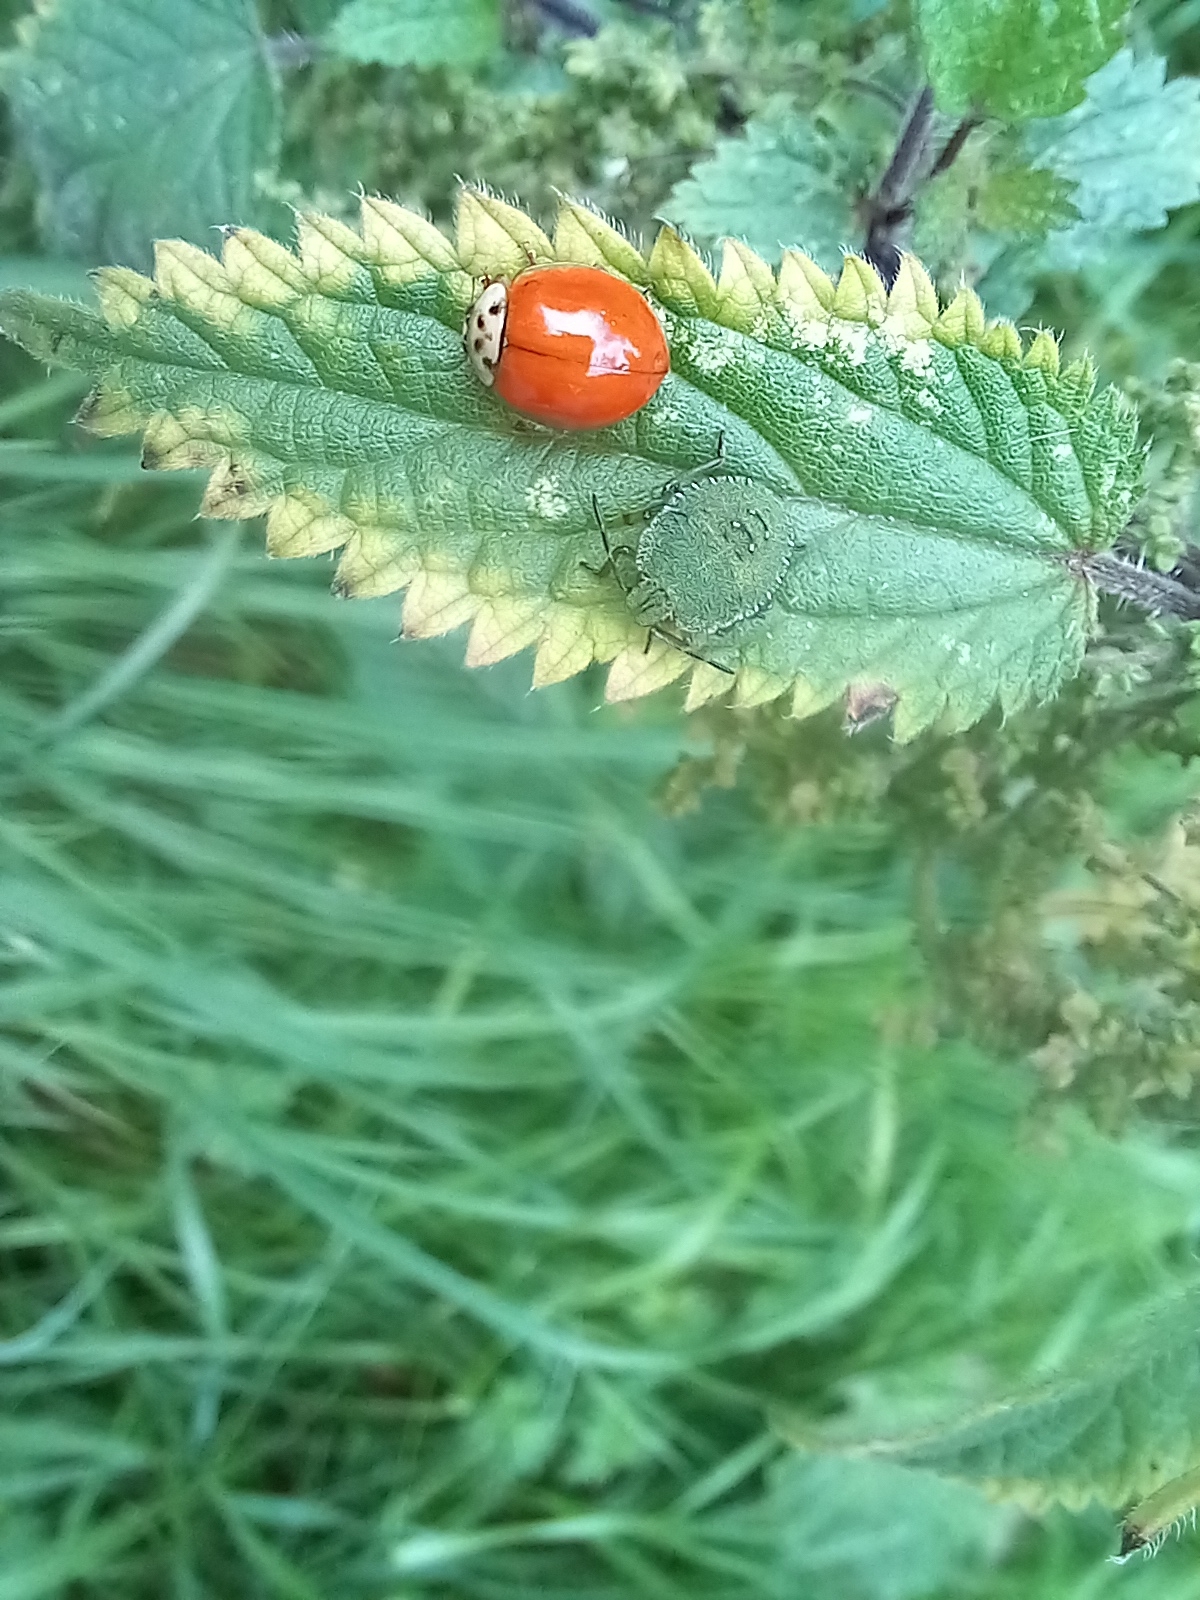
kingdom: Animalia
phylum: Arthropoda
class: Insecta
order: Coleoptera
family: Coccinellidae
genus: Harmonia
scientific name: Harmonia axyridis
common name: Harlequin ladybird
